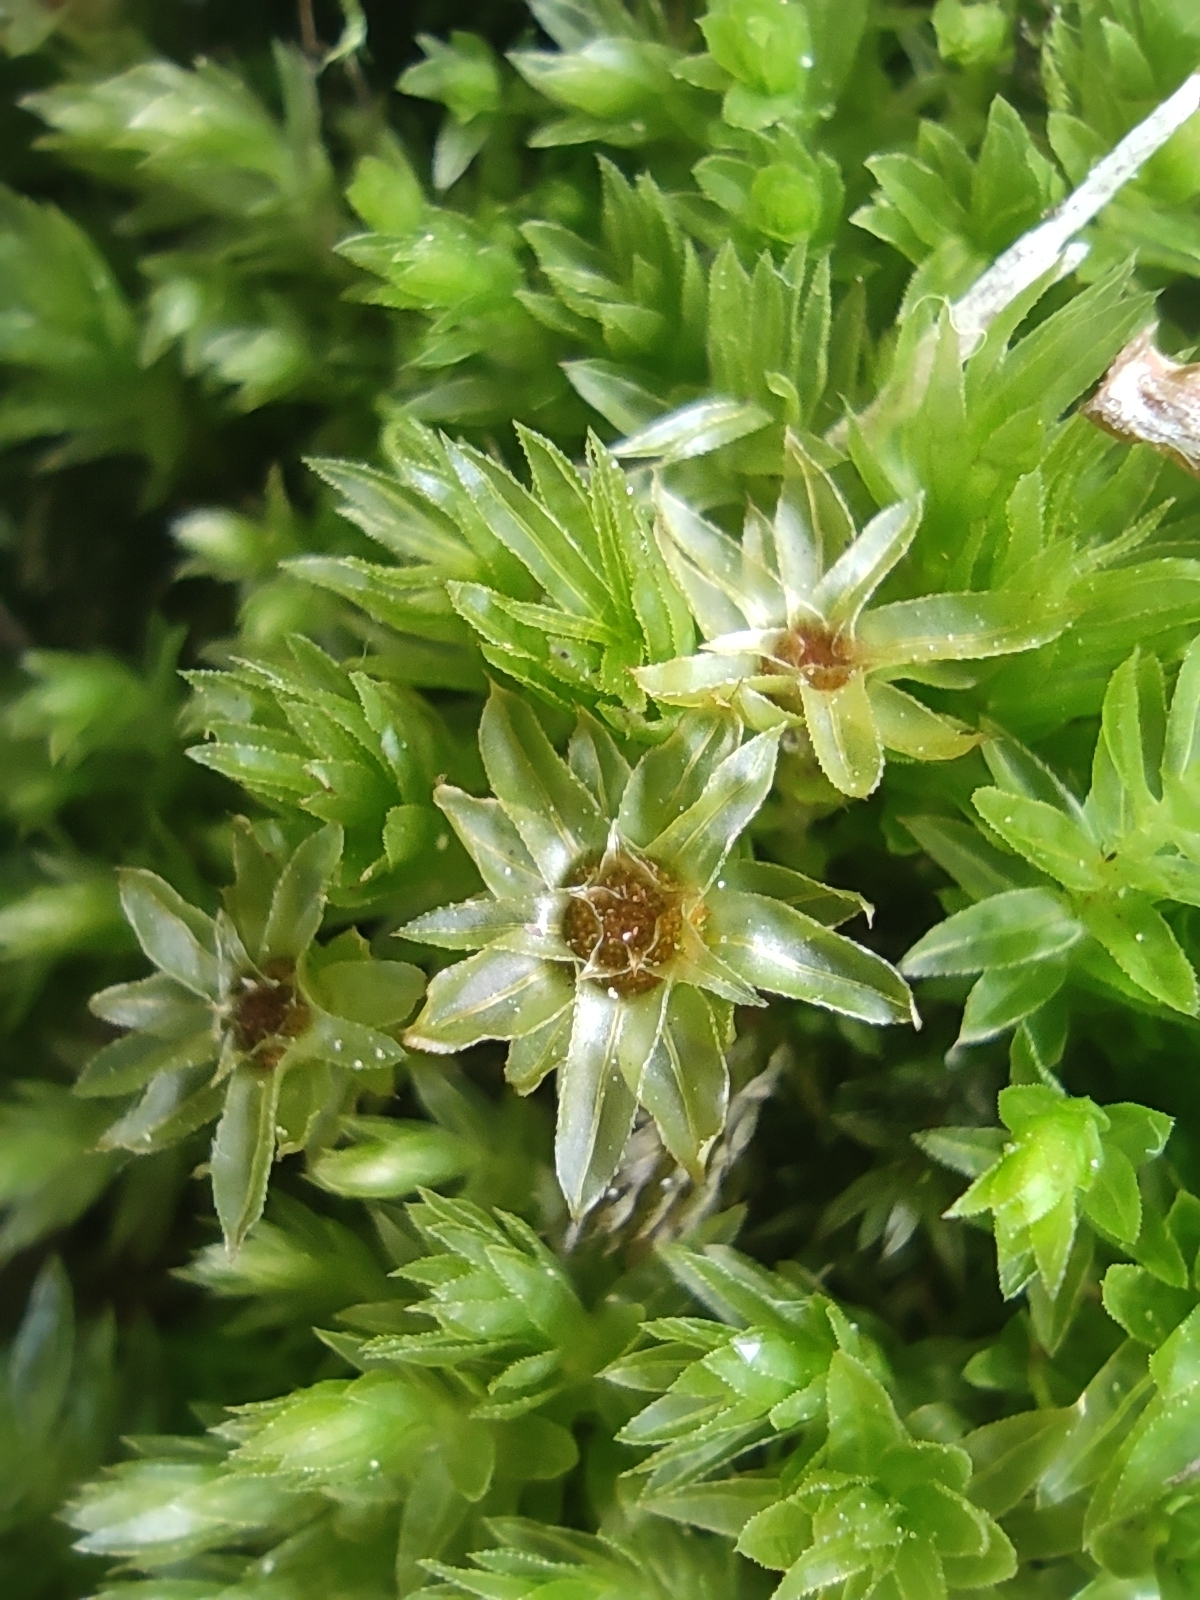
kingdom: Plantae
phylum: Bryophyta
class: Bryopsida
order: Bryales
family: Mniaceae
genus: Mnium
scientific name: Mnium hornum
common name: Swan's-neck leafy moss
